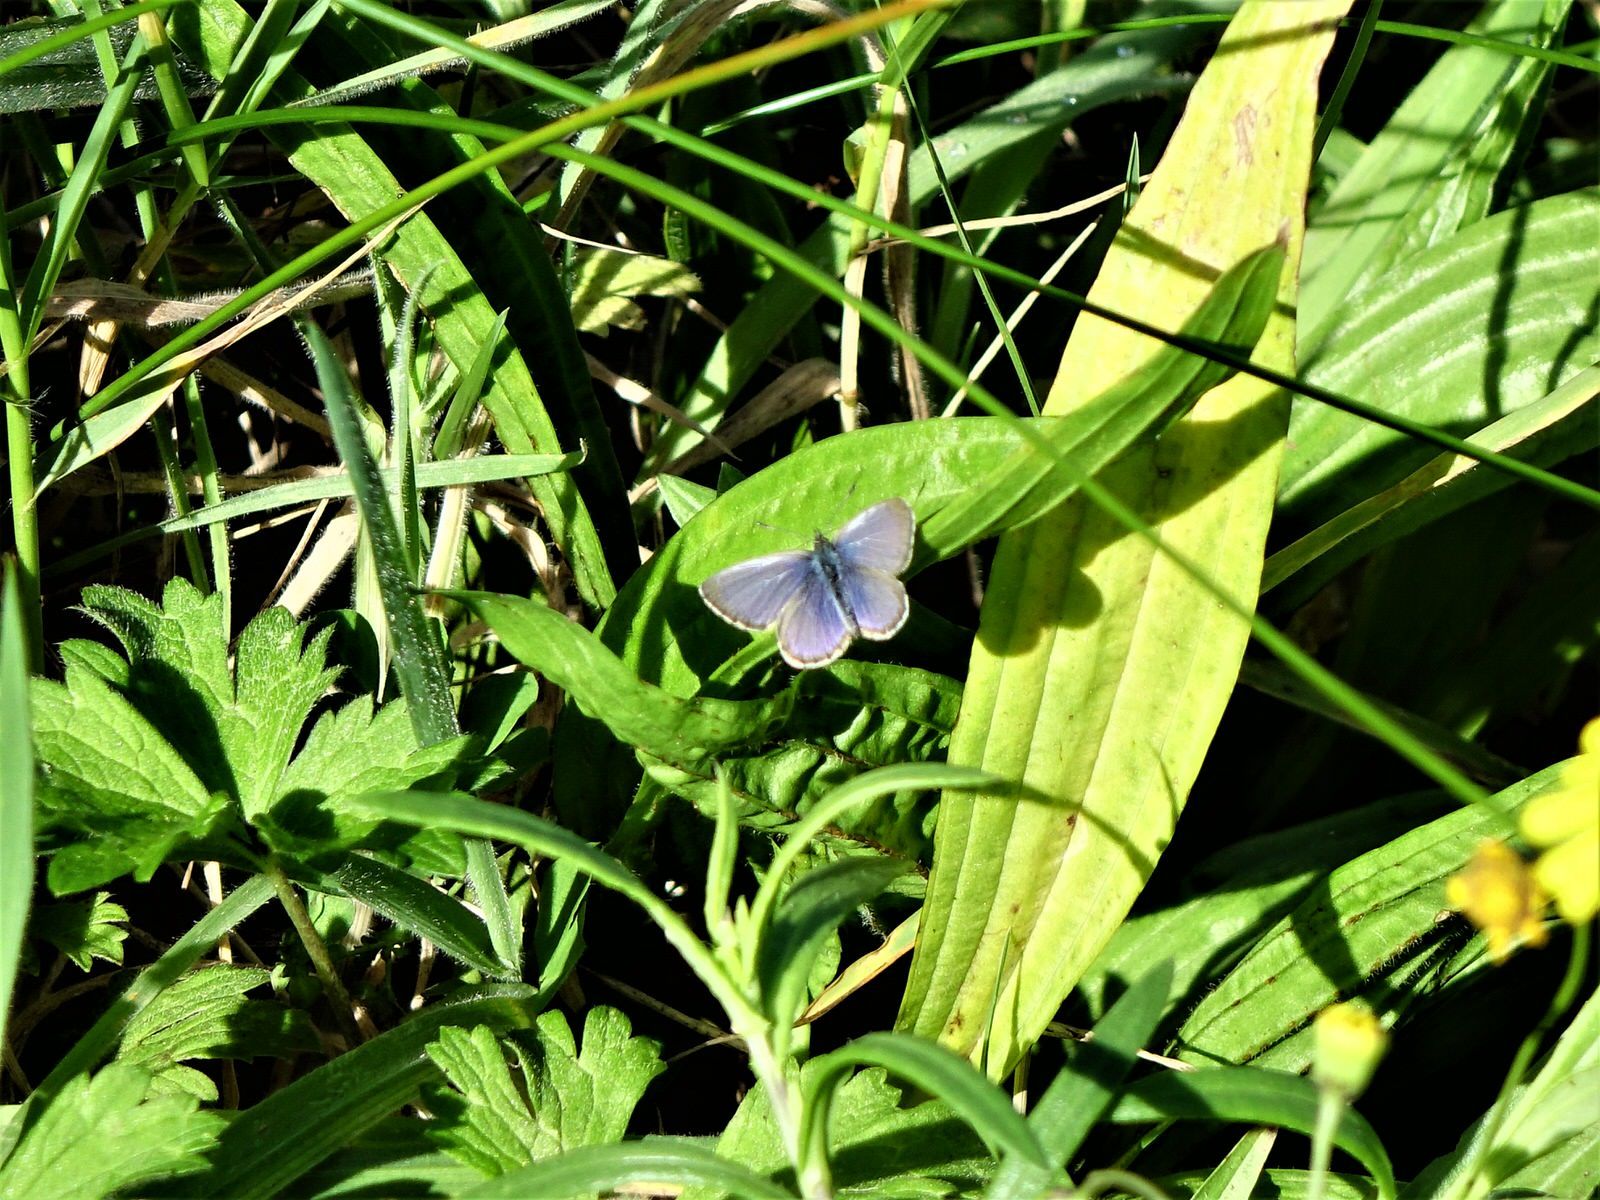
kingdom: Animalia
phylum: Arthropoda
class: Insecta
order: Lepidoptera
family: Lycaenidae
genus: Zizina
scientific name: Zizina labradus
